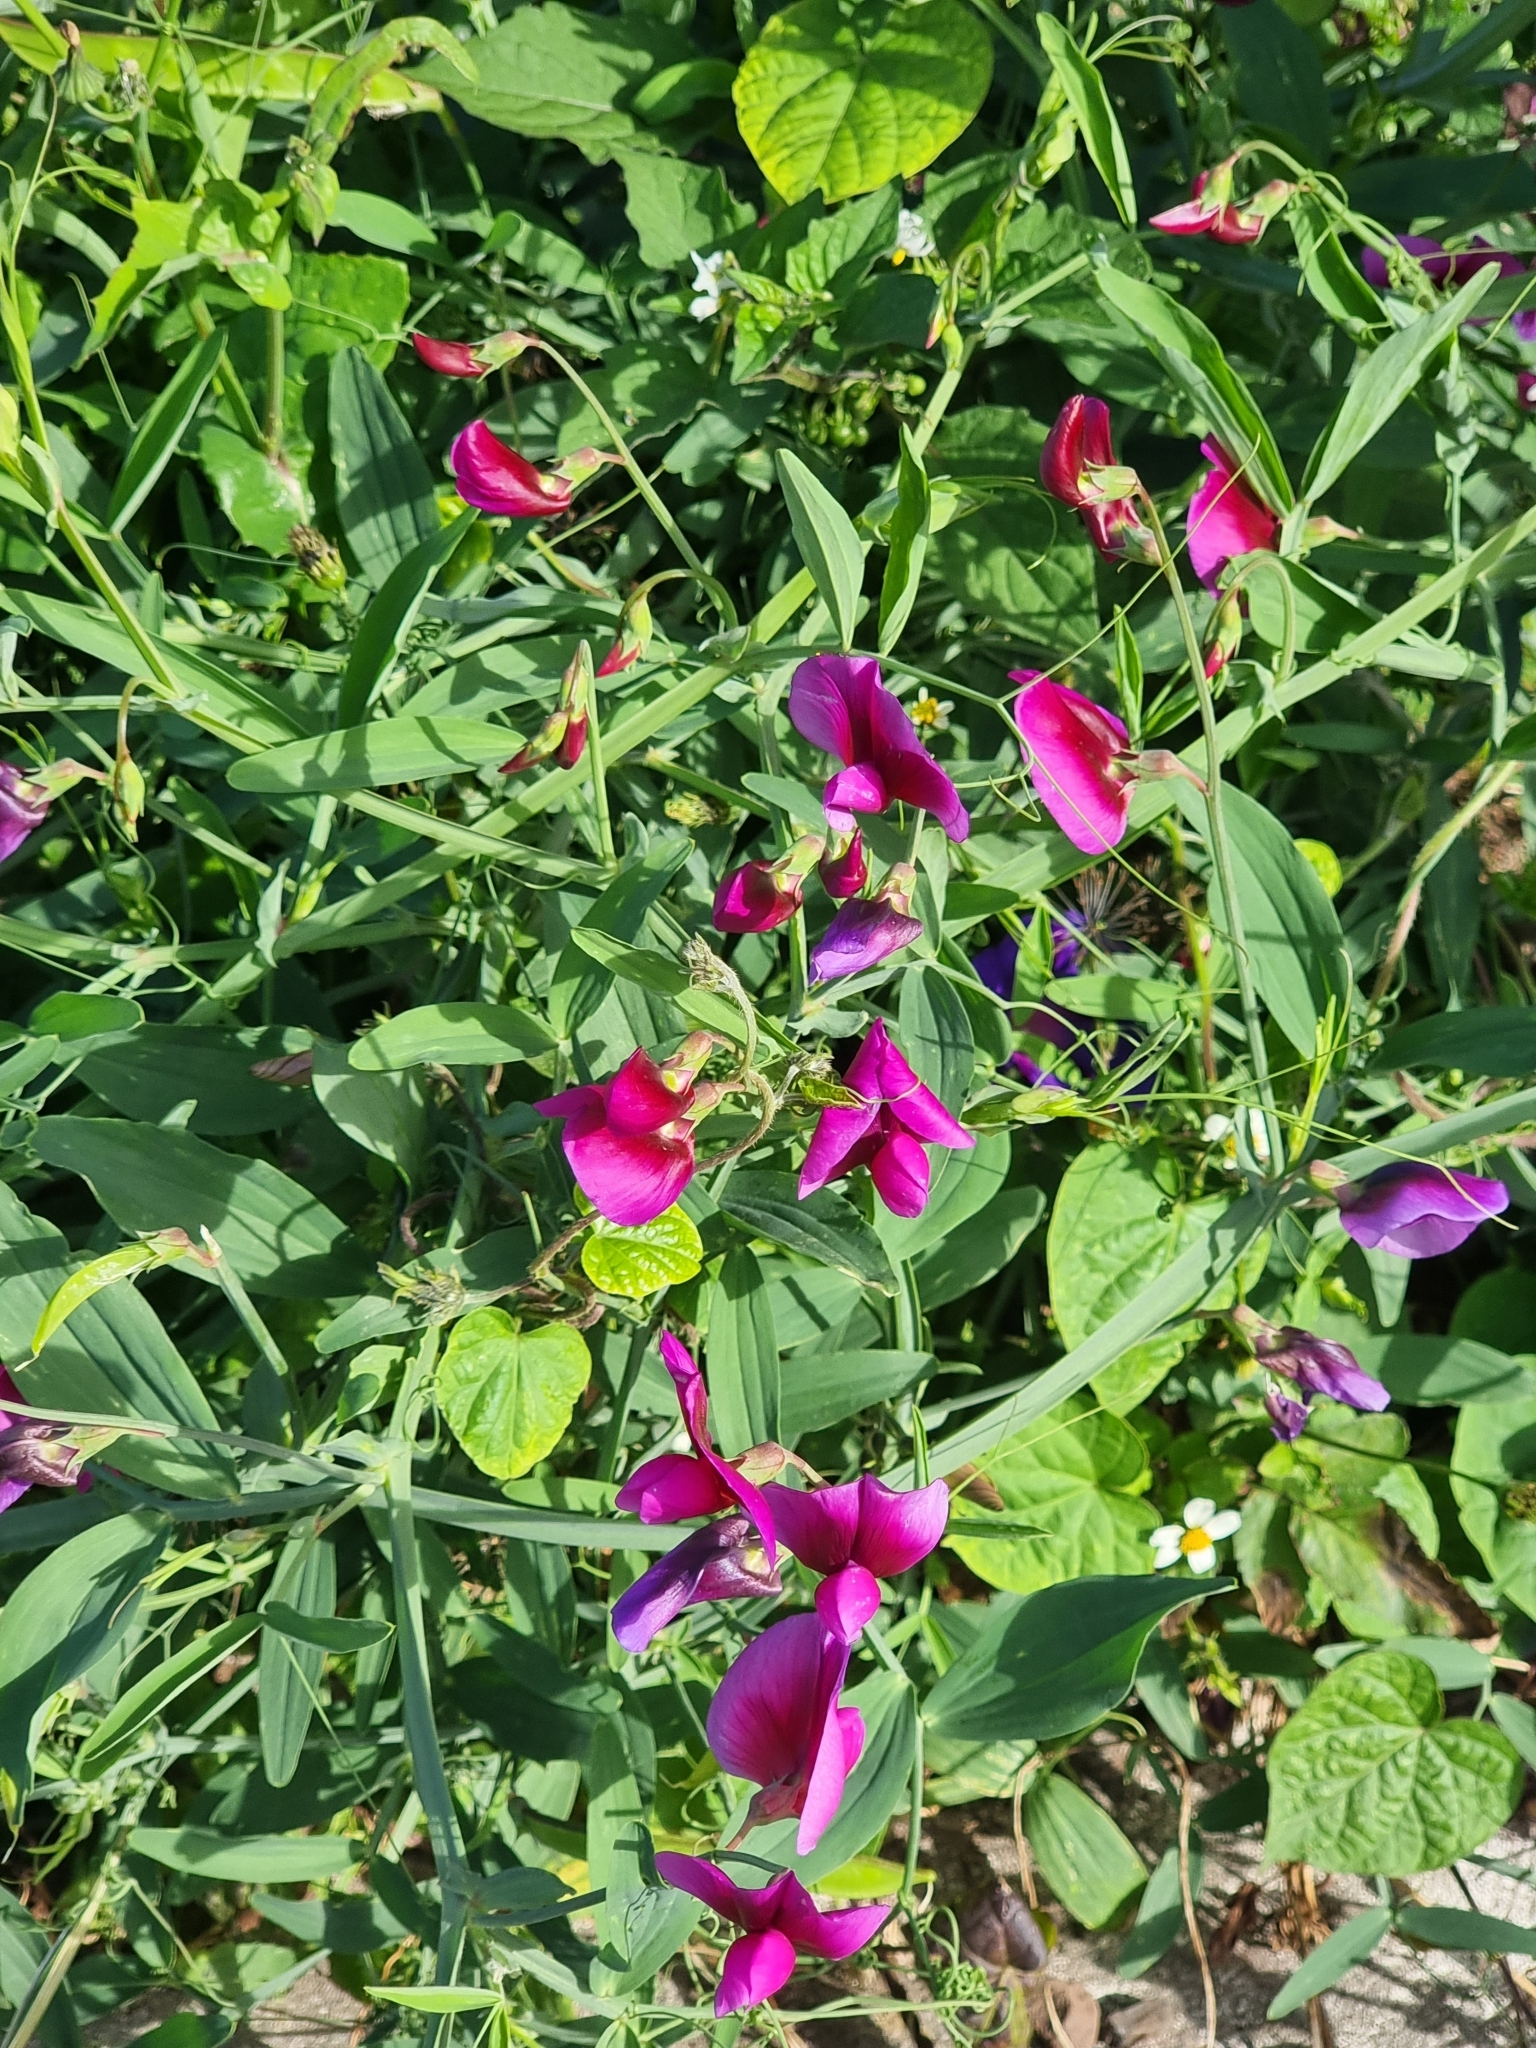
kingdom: Plantae
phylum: Tracheophyta
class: Magnoliopsida
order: Fabales
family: Fabaceae
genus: Lathyrus
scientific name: Lathyrus tingitanus
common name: Tangier pea
